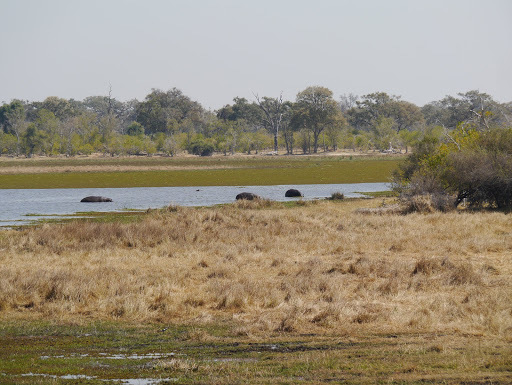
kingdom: Animalia
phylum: Chordata
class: Mammalia
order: Artiodactyla
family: Hippopotamidae
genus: Hippopotamus
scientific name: Hippopotamus amphibius
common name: Common hippopotamus
